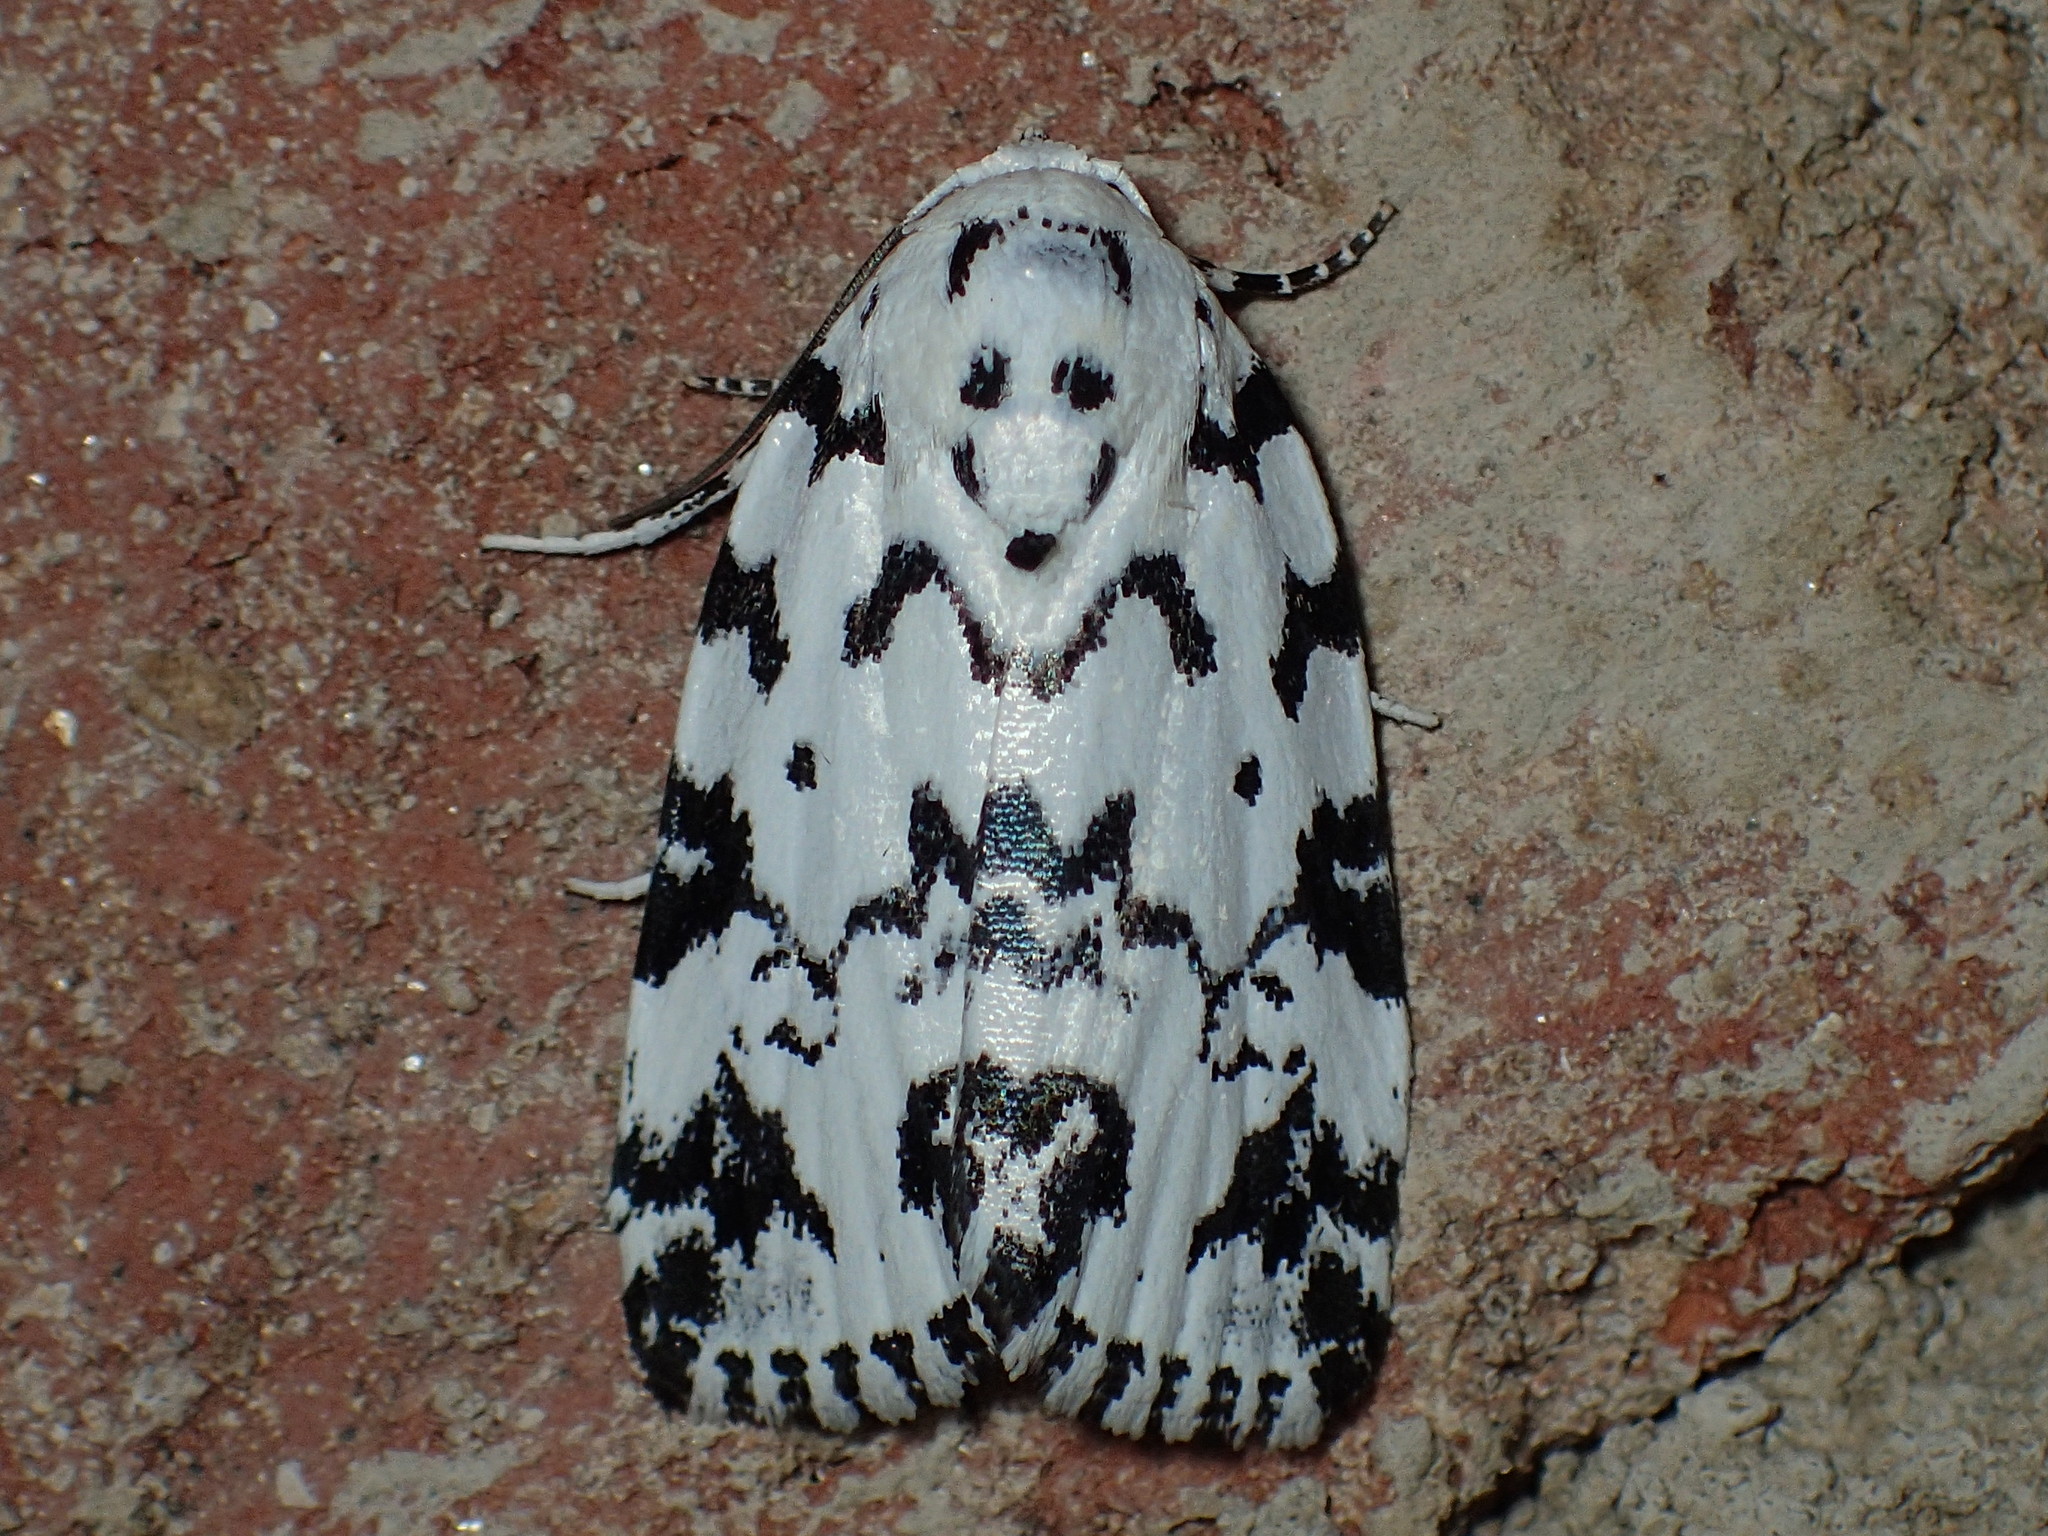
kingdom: Animalia
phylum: Arthropoda
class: Insecta
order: Lepidoptera
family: Noctuidae
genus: Polygrammate
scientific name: Polygrammate hebraeicum
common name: Hebrew moth
